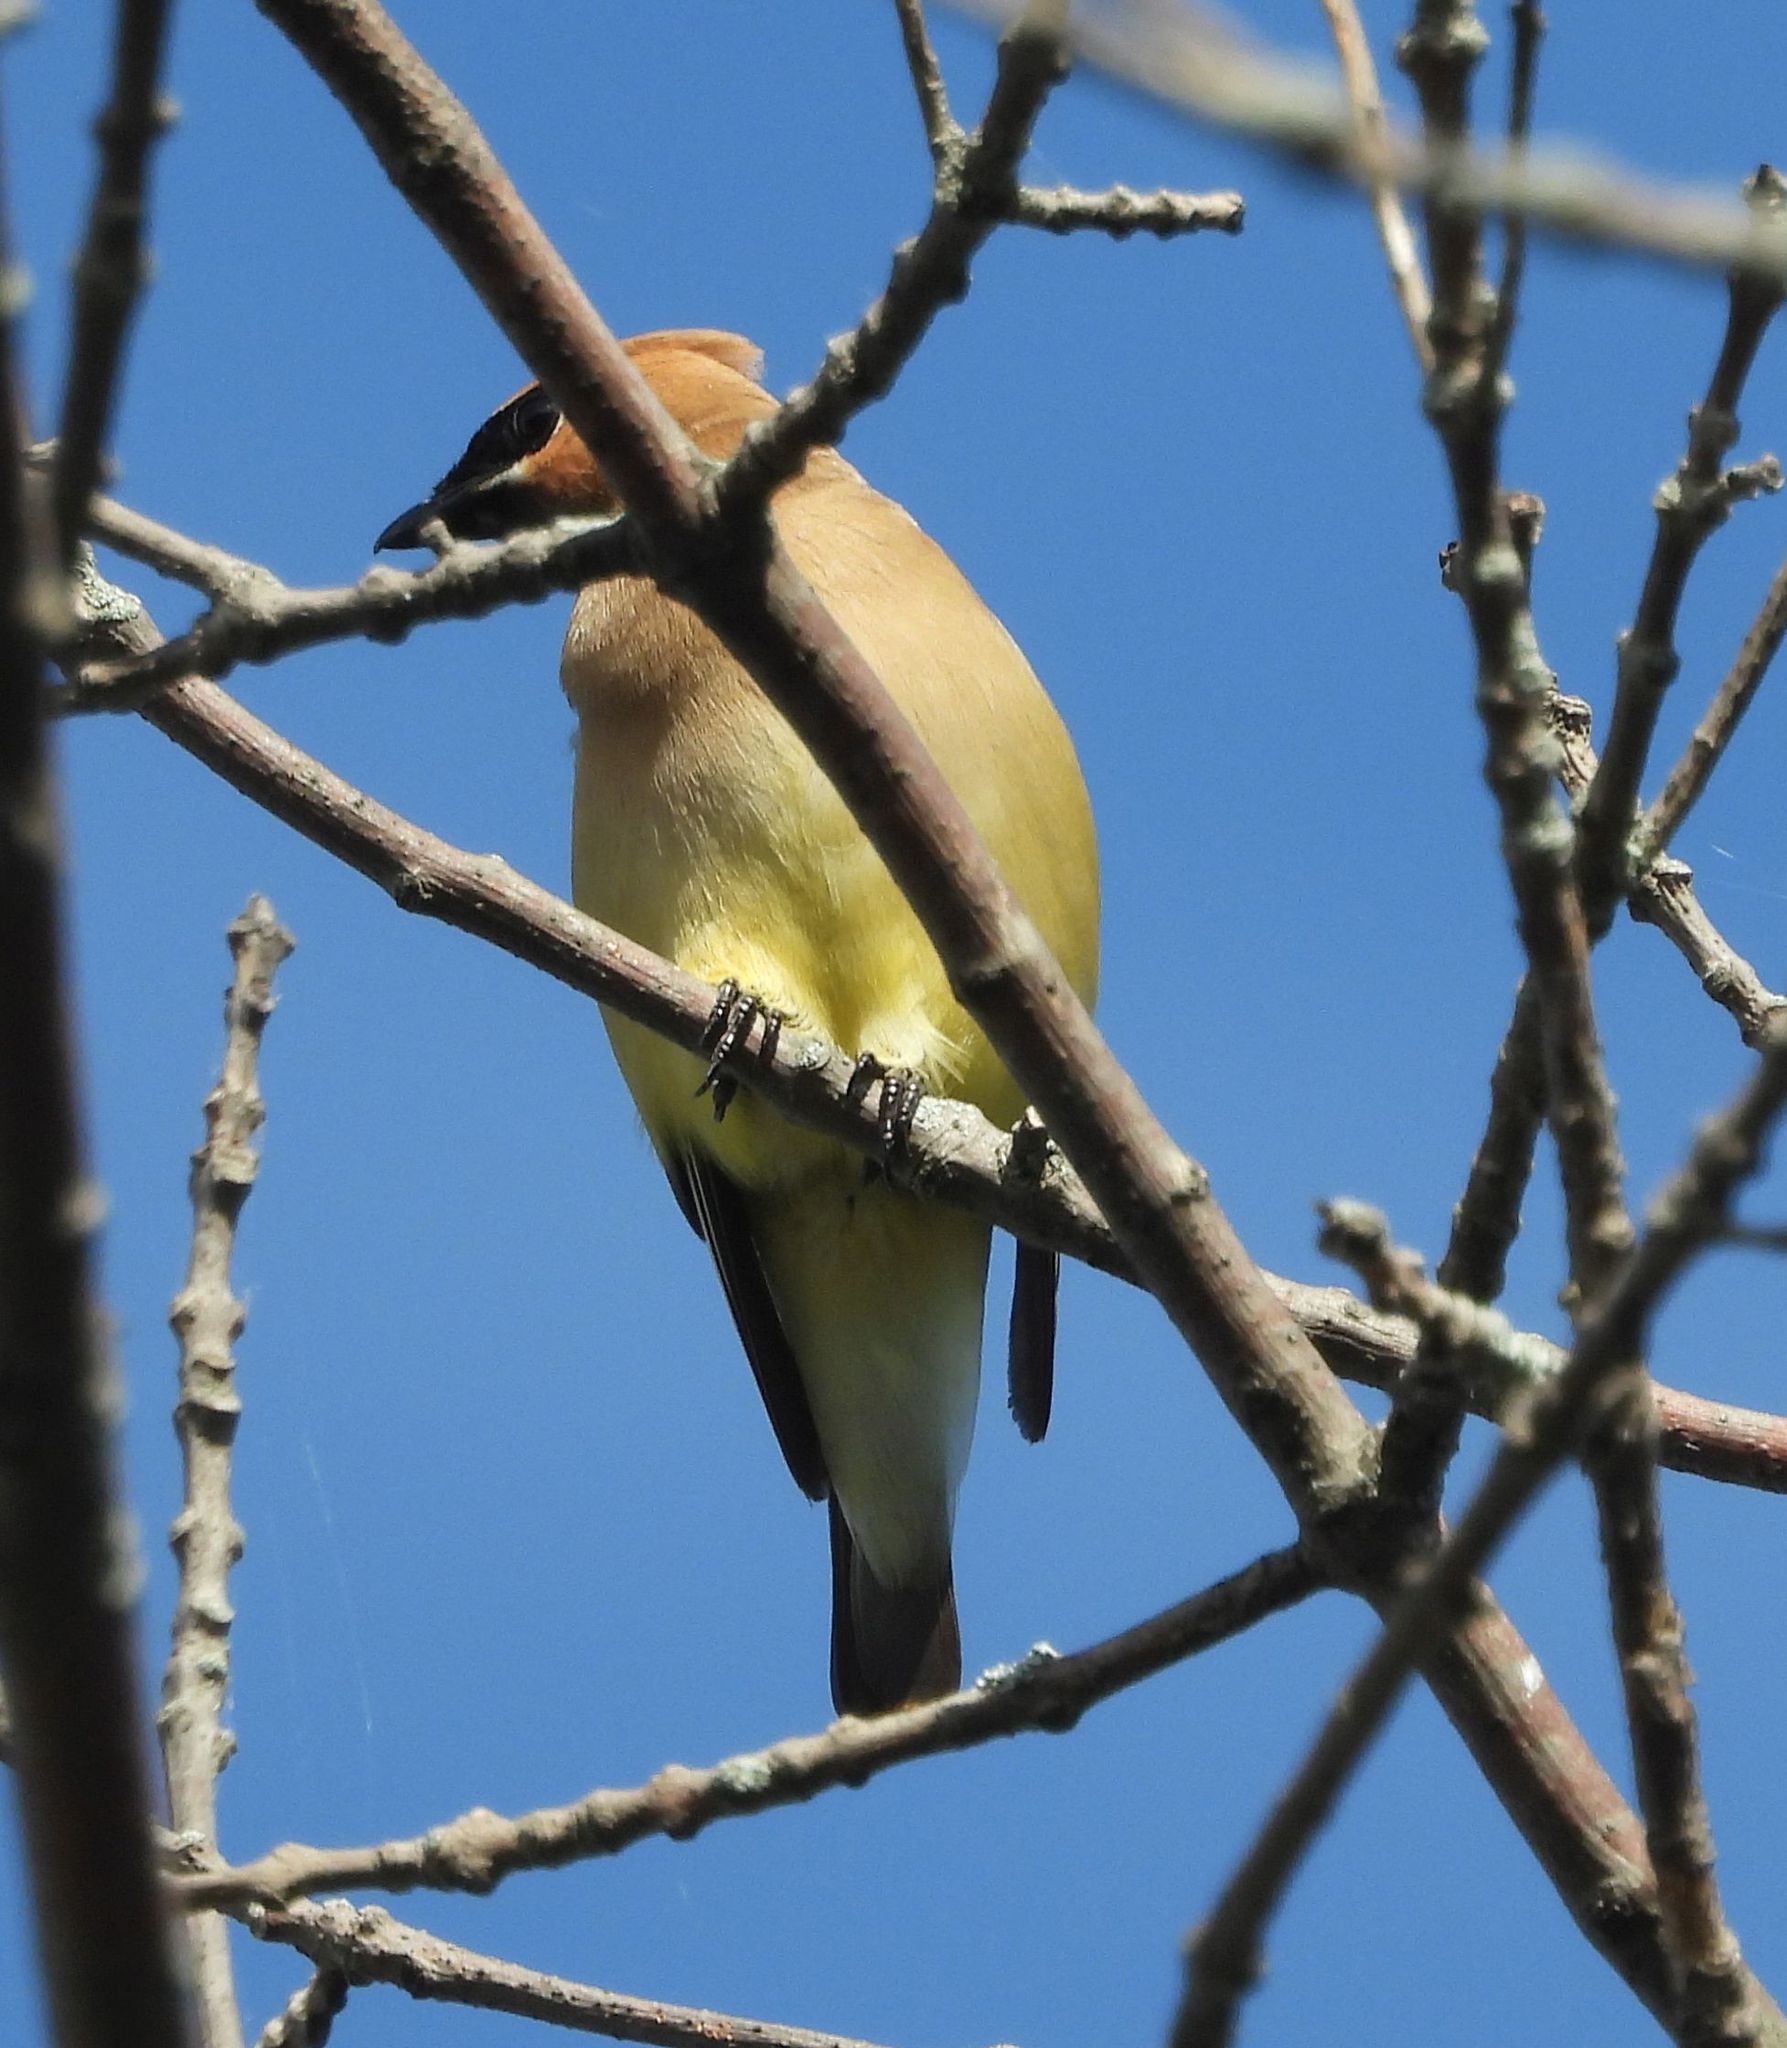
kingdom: Animalia
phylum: Chordata
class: Aves
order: Passeriformes
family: Bombycillidae
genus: Bombycilla
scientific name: Bombycilla cedrorum
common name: Cedar waxwing
